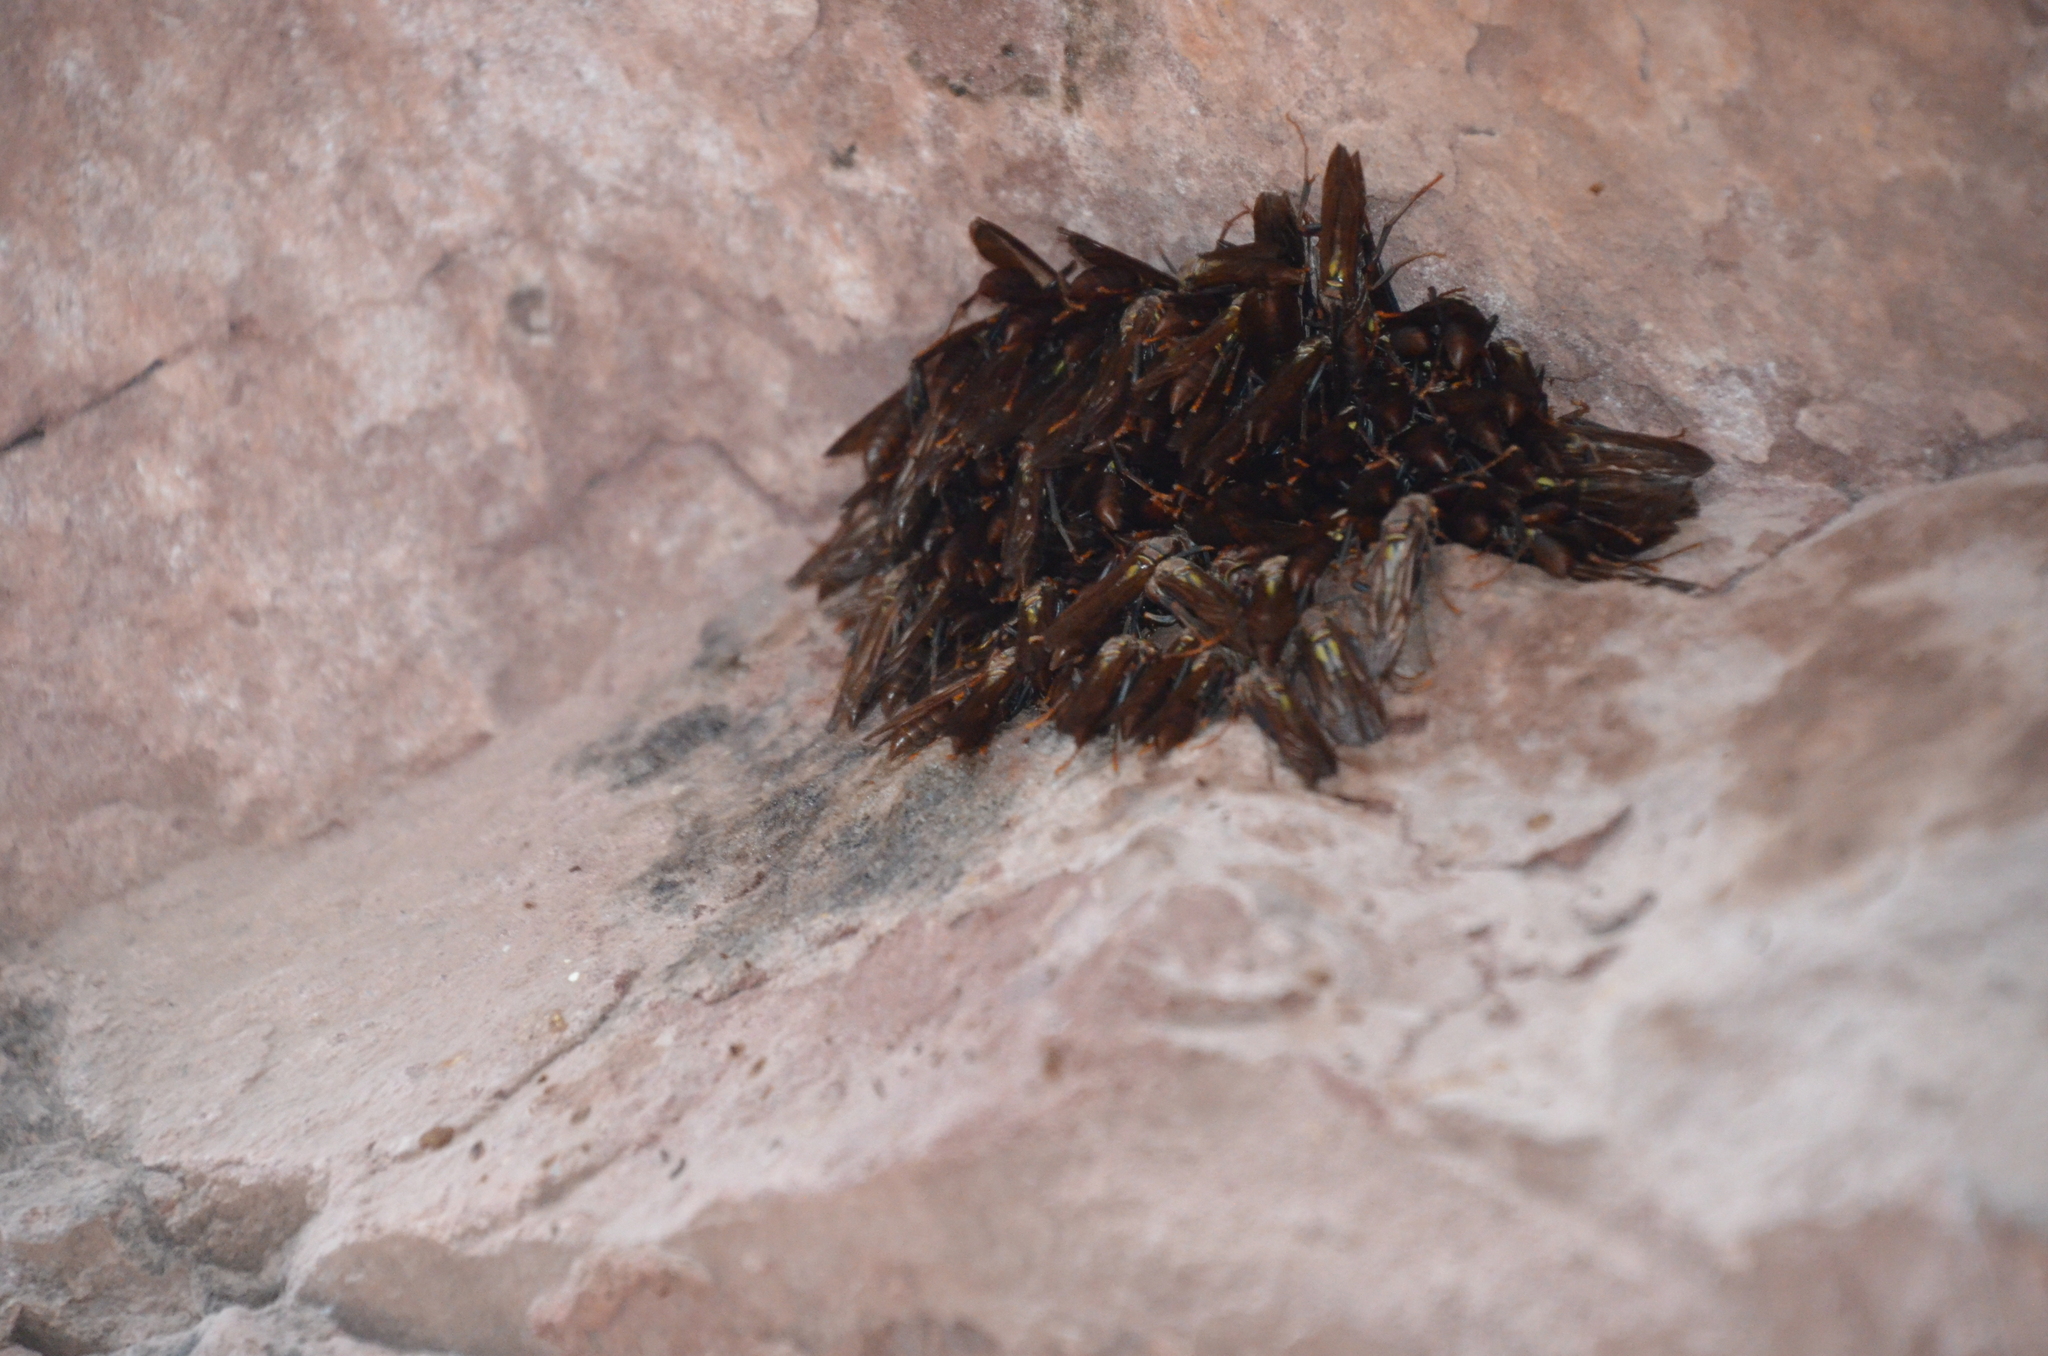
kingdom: Animalia
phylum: Arthropoda
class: Insecta
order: Hymenoptera
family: Pompilidae
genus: Aphanilopterus
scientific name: Aphanilopterus
